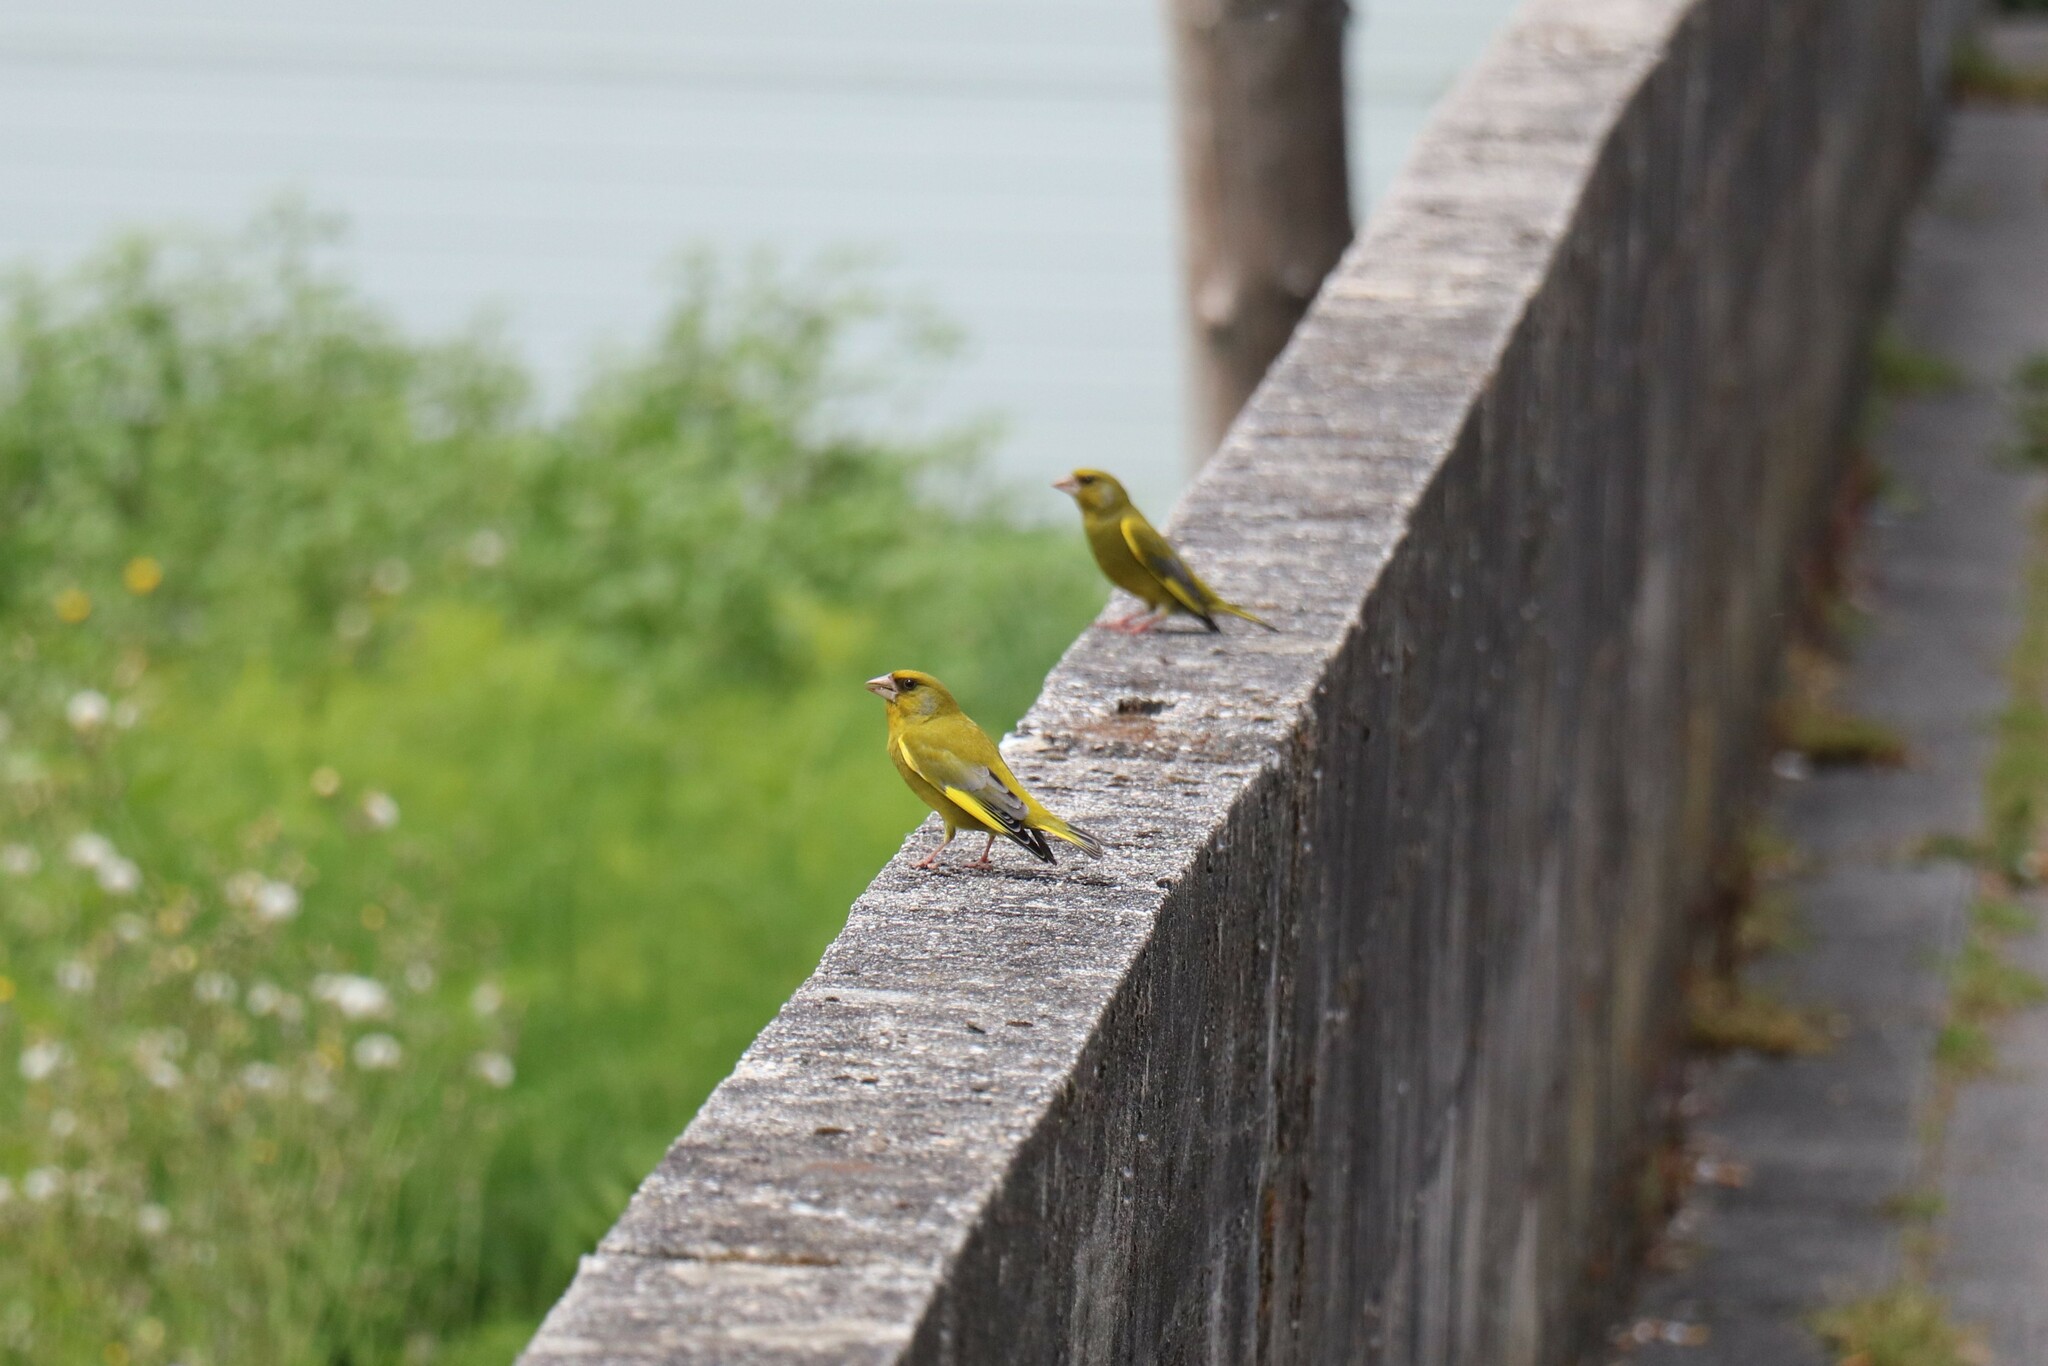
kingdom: Plantae
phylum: Tracheophyta
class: Liliopsida
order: Poales
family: Poaceae
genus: Chloris
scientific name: Chloris chloris
